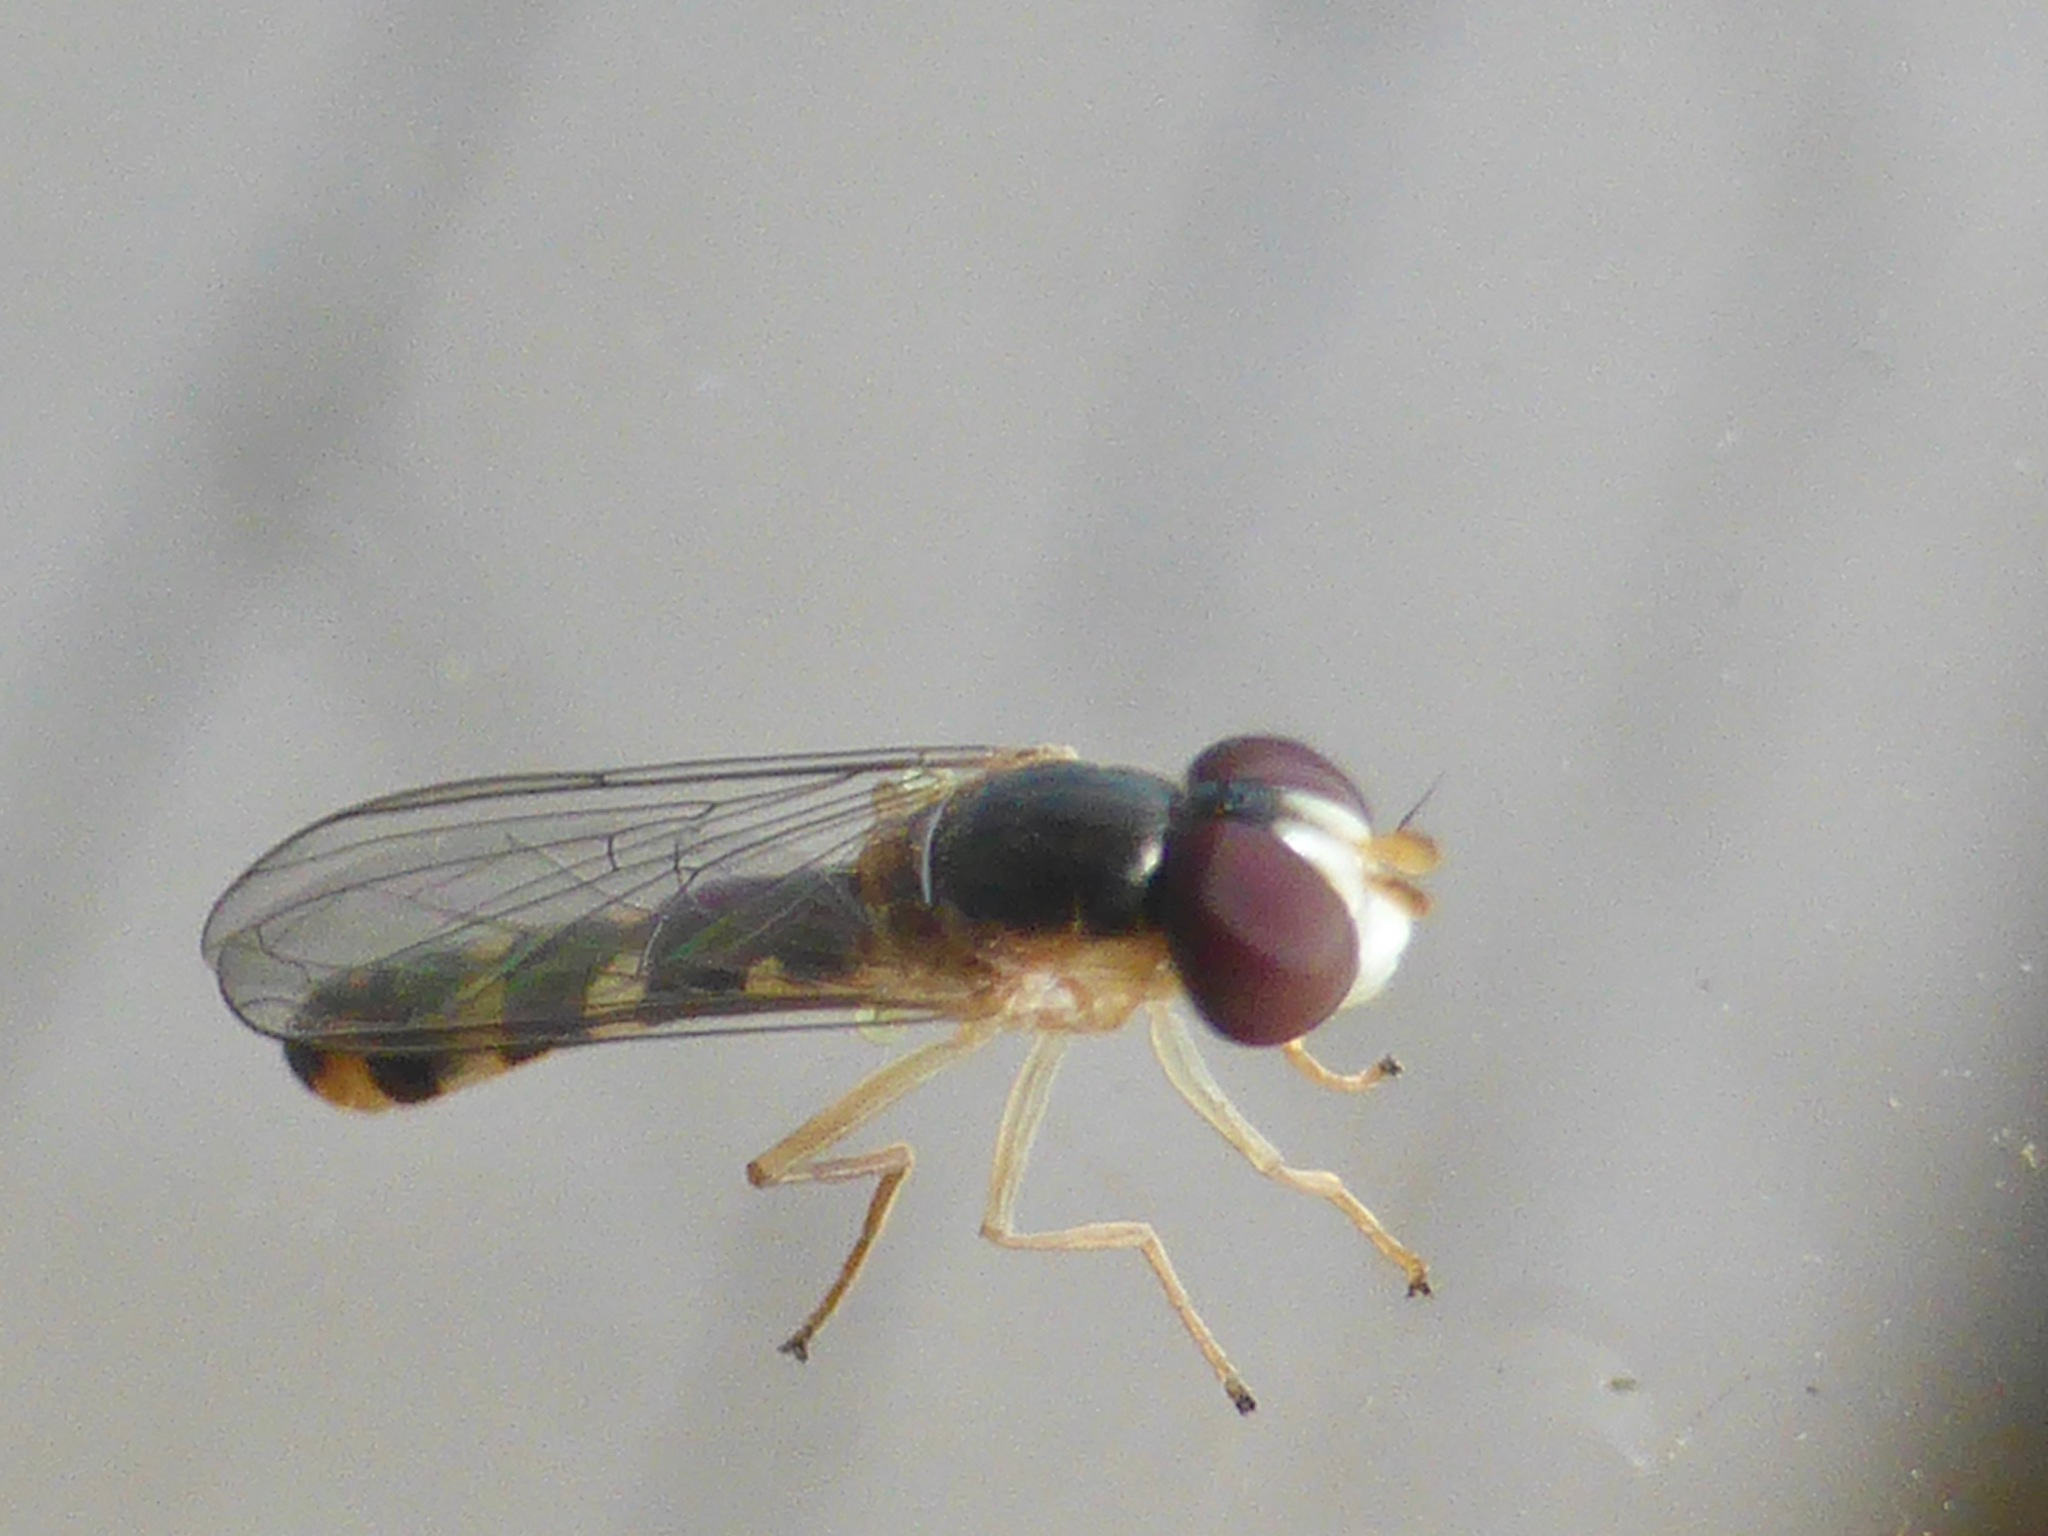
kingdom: Animalia
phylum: Arthropoda
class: Insecta
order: Diptera
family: Syrphidae
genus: Allograpta
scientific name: Allograpta ventralis
